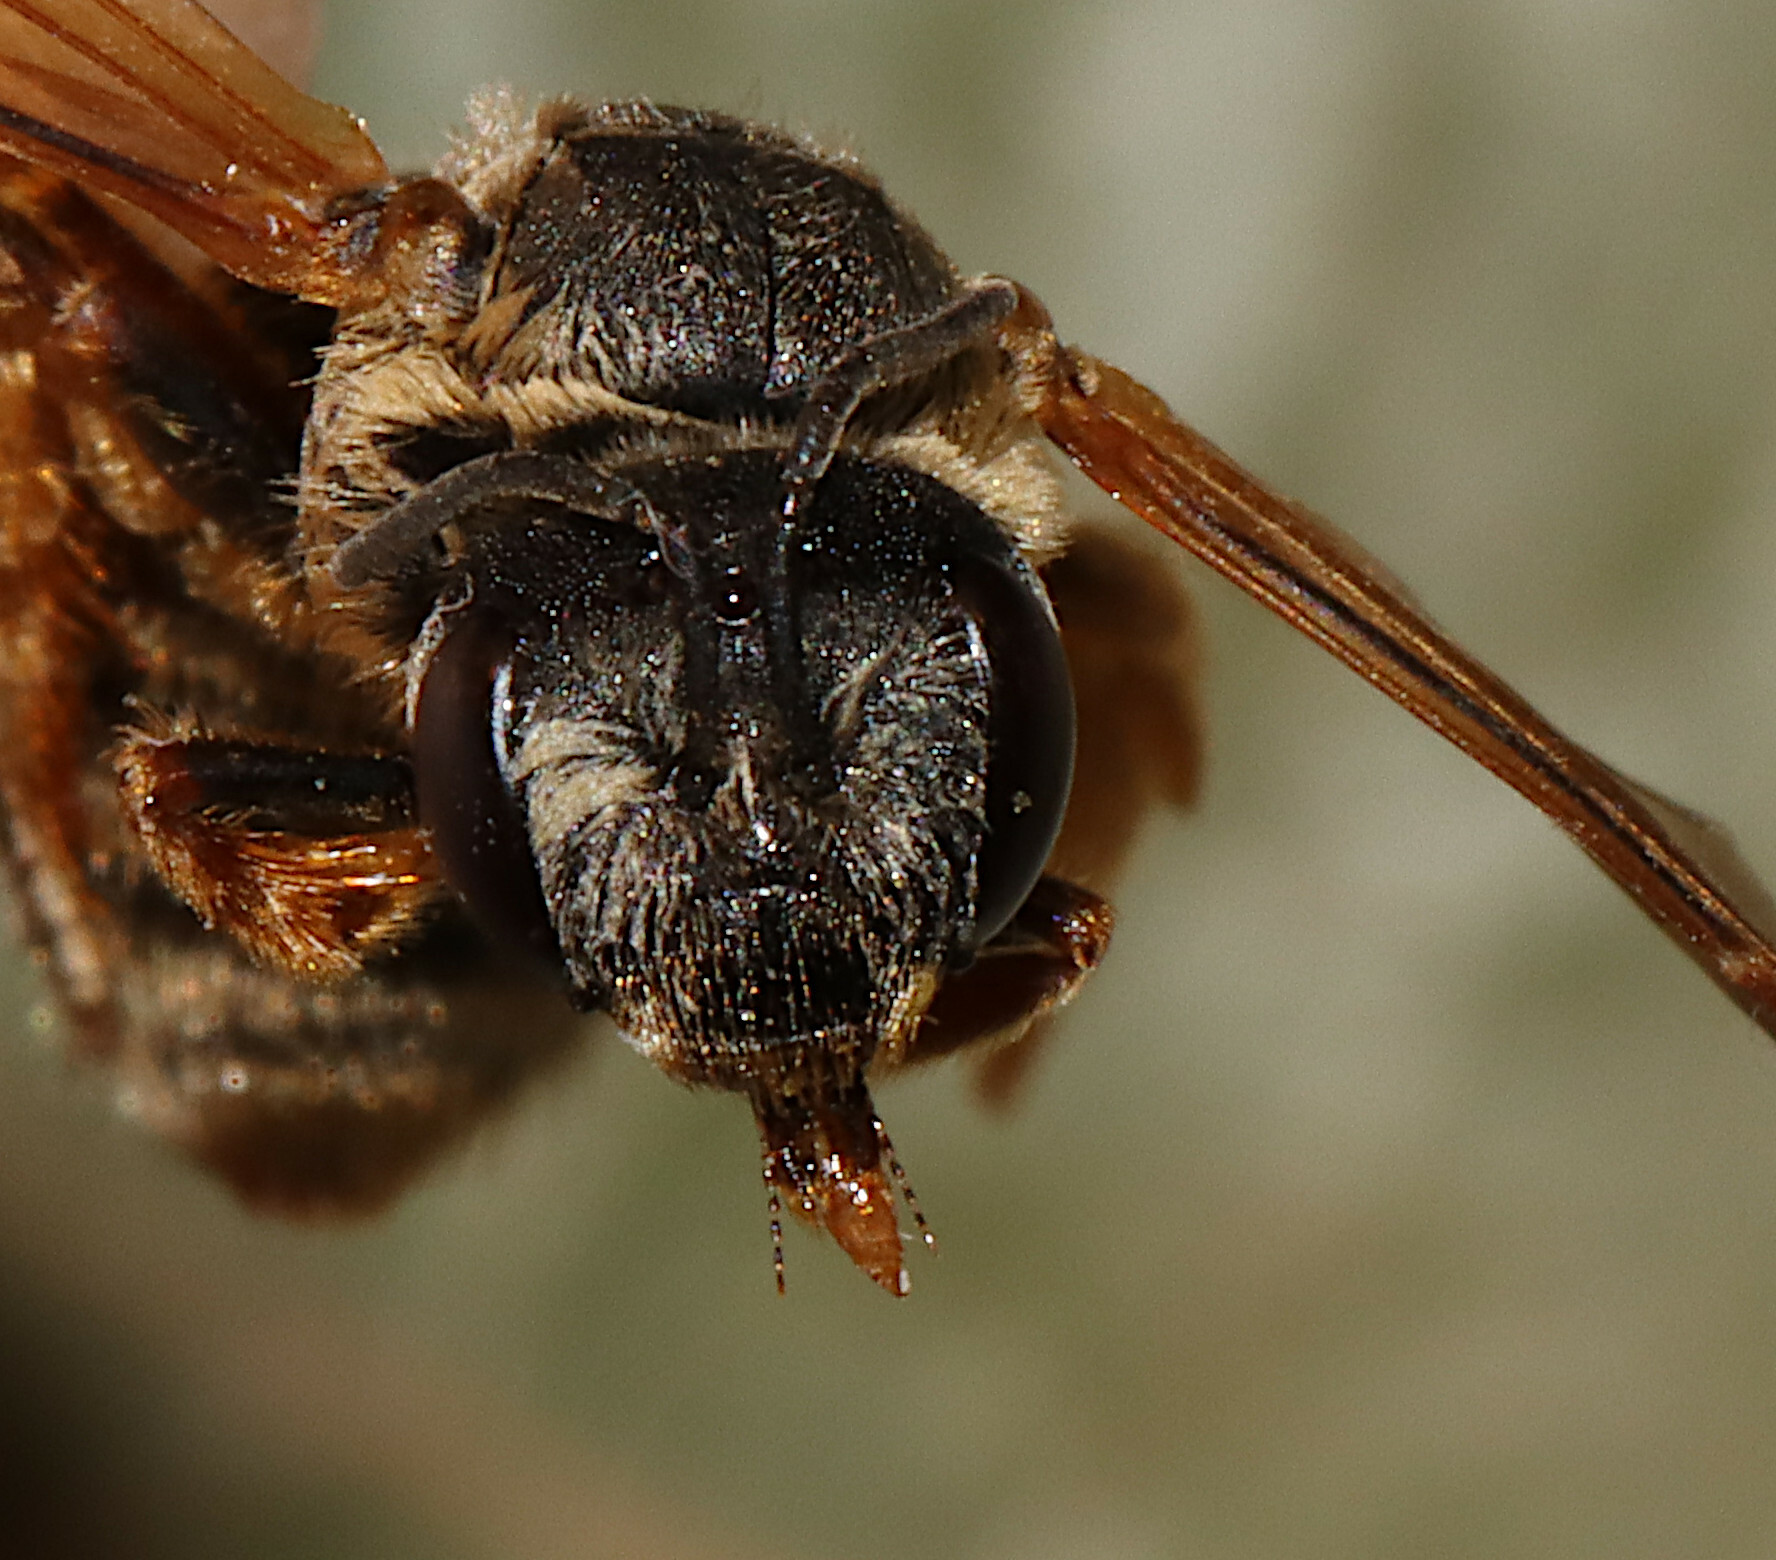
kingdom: Animalia
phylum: Arthropoda
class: Insecta
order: Hymenoptera
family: Halictidae
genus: Halictus
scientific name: Halictus parallelus
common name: Parallel-striped sweat bee
